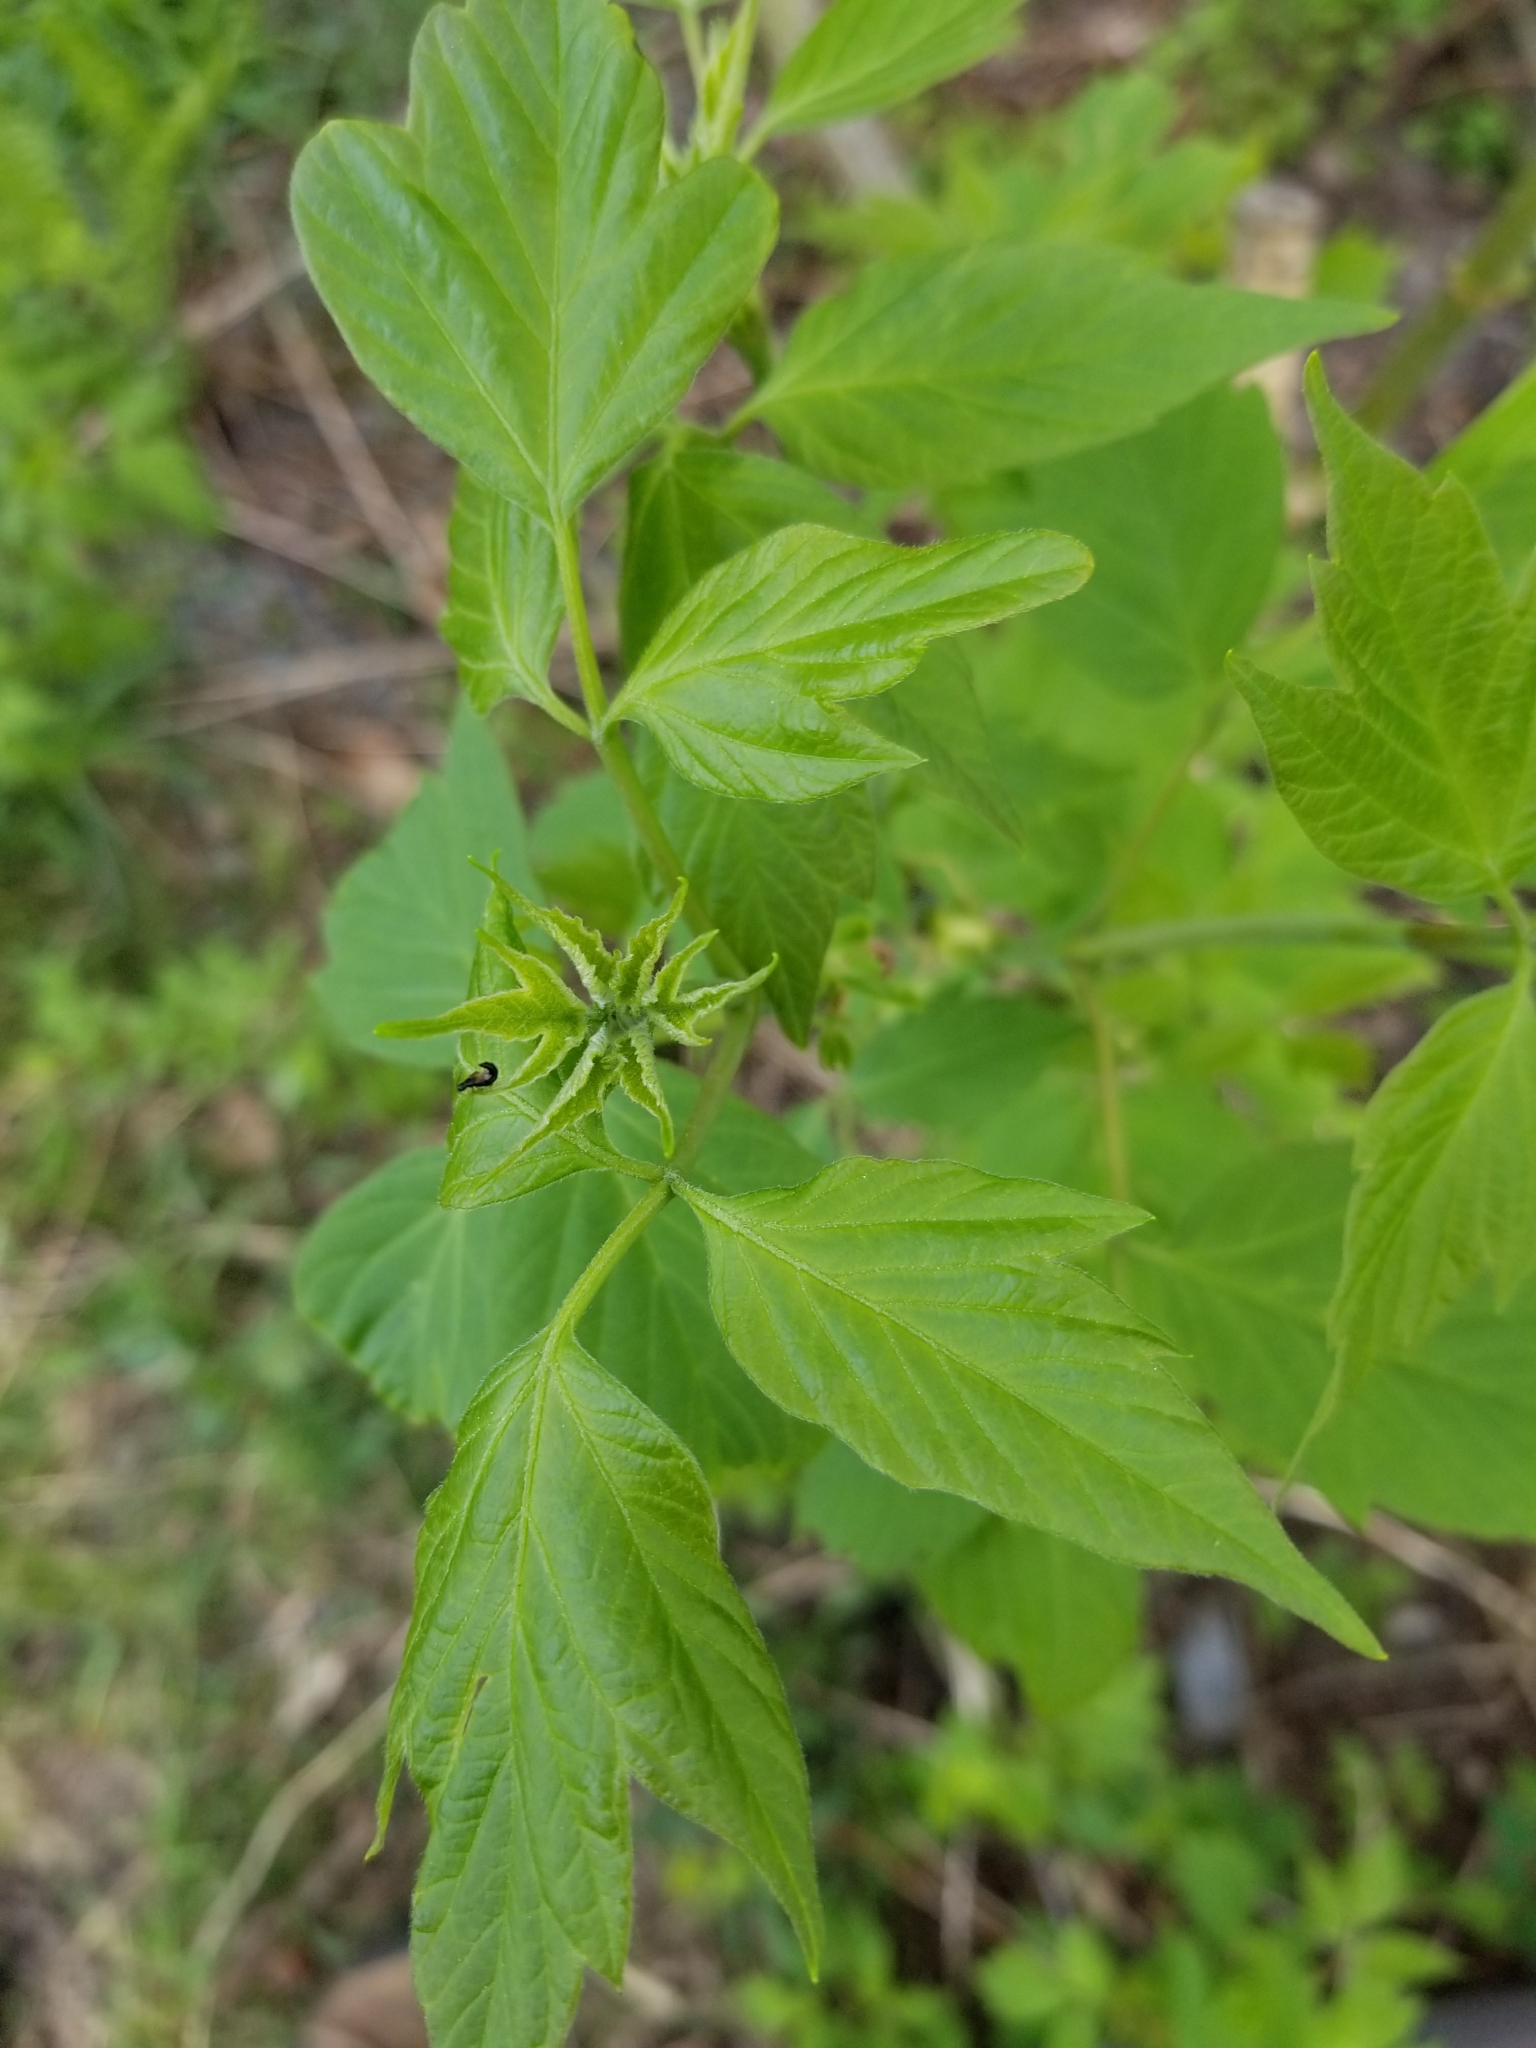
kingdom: Plantae
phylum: Tracheophyta
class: Magnoliopsida
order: Sapindales
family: Sapindaceae
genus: Acer
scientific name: Acer negundo
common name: Ashleaf maple
